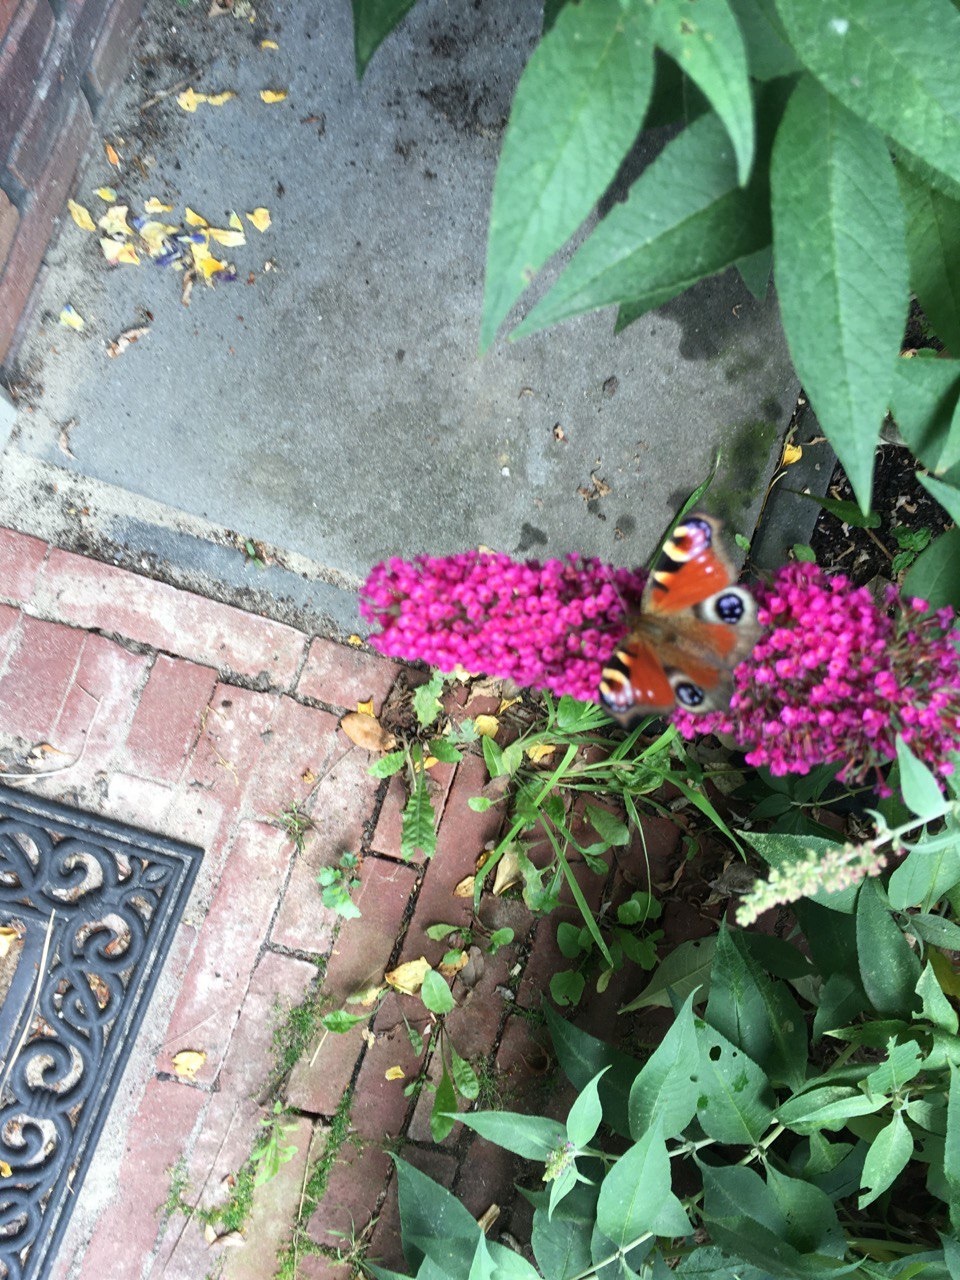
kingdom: Animalia
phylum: Arthropoda
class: Insecta
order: Lepidoptera
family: Nymphalidae
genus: Aglais
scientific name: Aglais io
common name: Peacock
